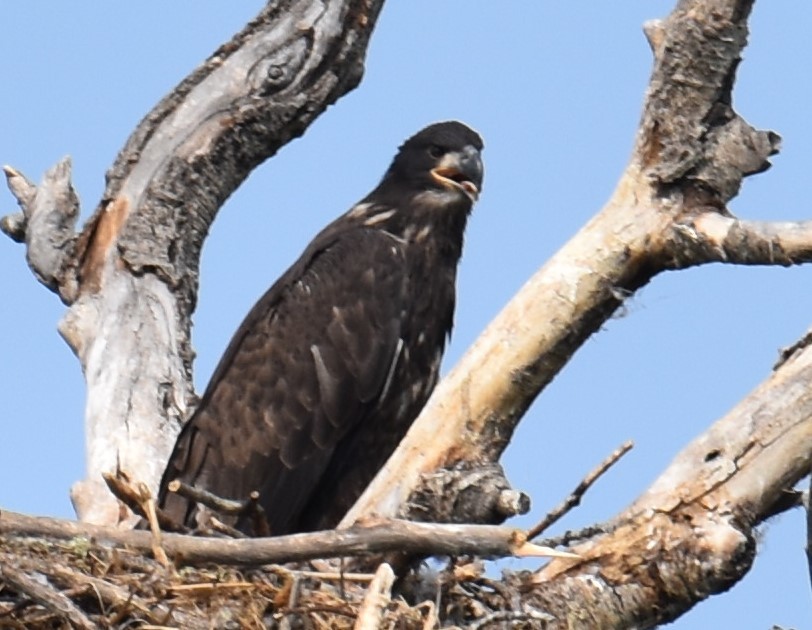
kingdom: Animalia
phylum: Chordata
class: Aves
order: Accipitriformes
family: Accipitridae
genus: Haliaeetus
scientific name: Haliaeetus leucocephalus
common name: Bald eagle
